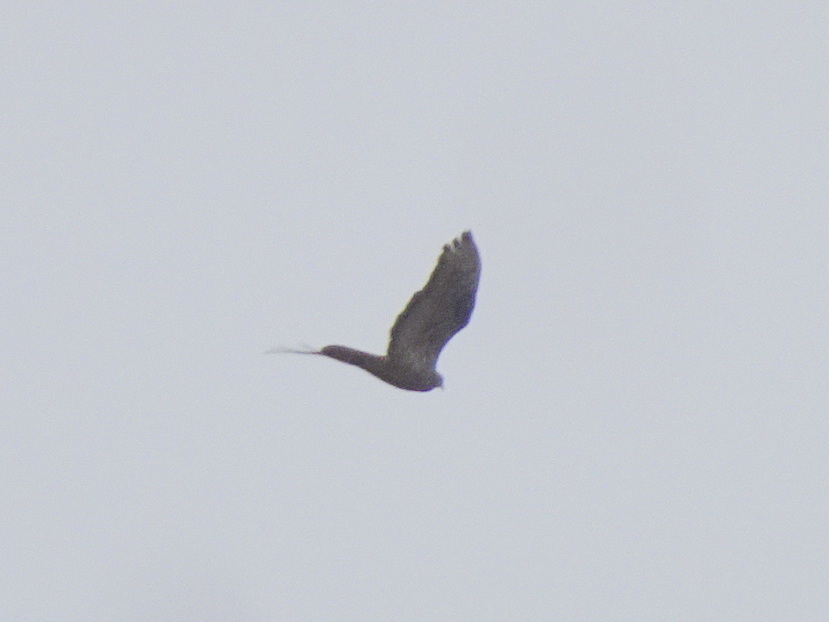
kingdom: Animalia
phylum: Chordata
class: Aves
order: Accipitriformes
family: Accipitridae
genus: Pernis
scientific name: Pernis apivorus
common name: European honey buzzard
